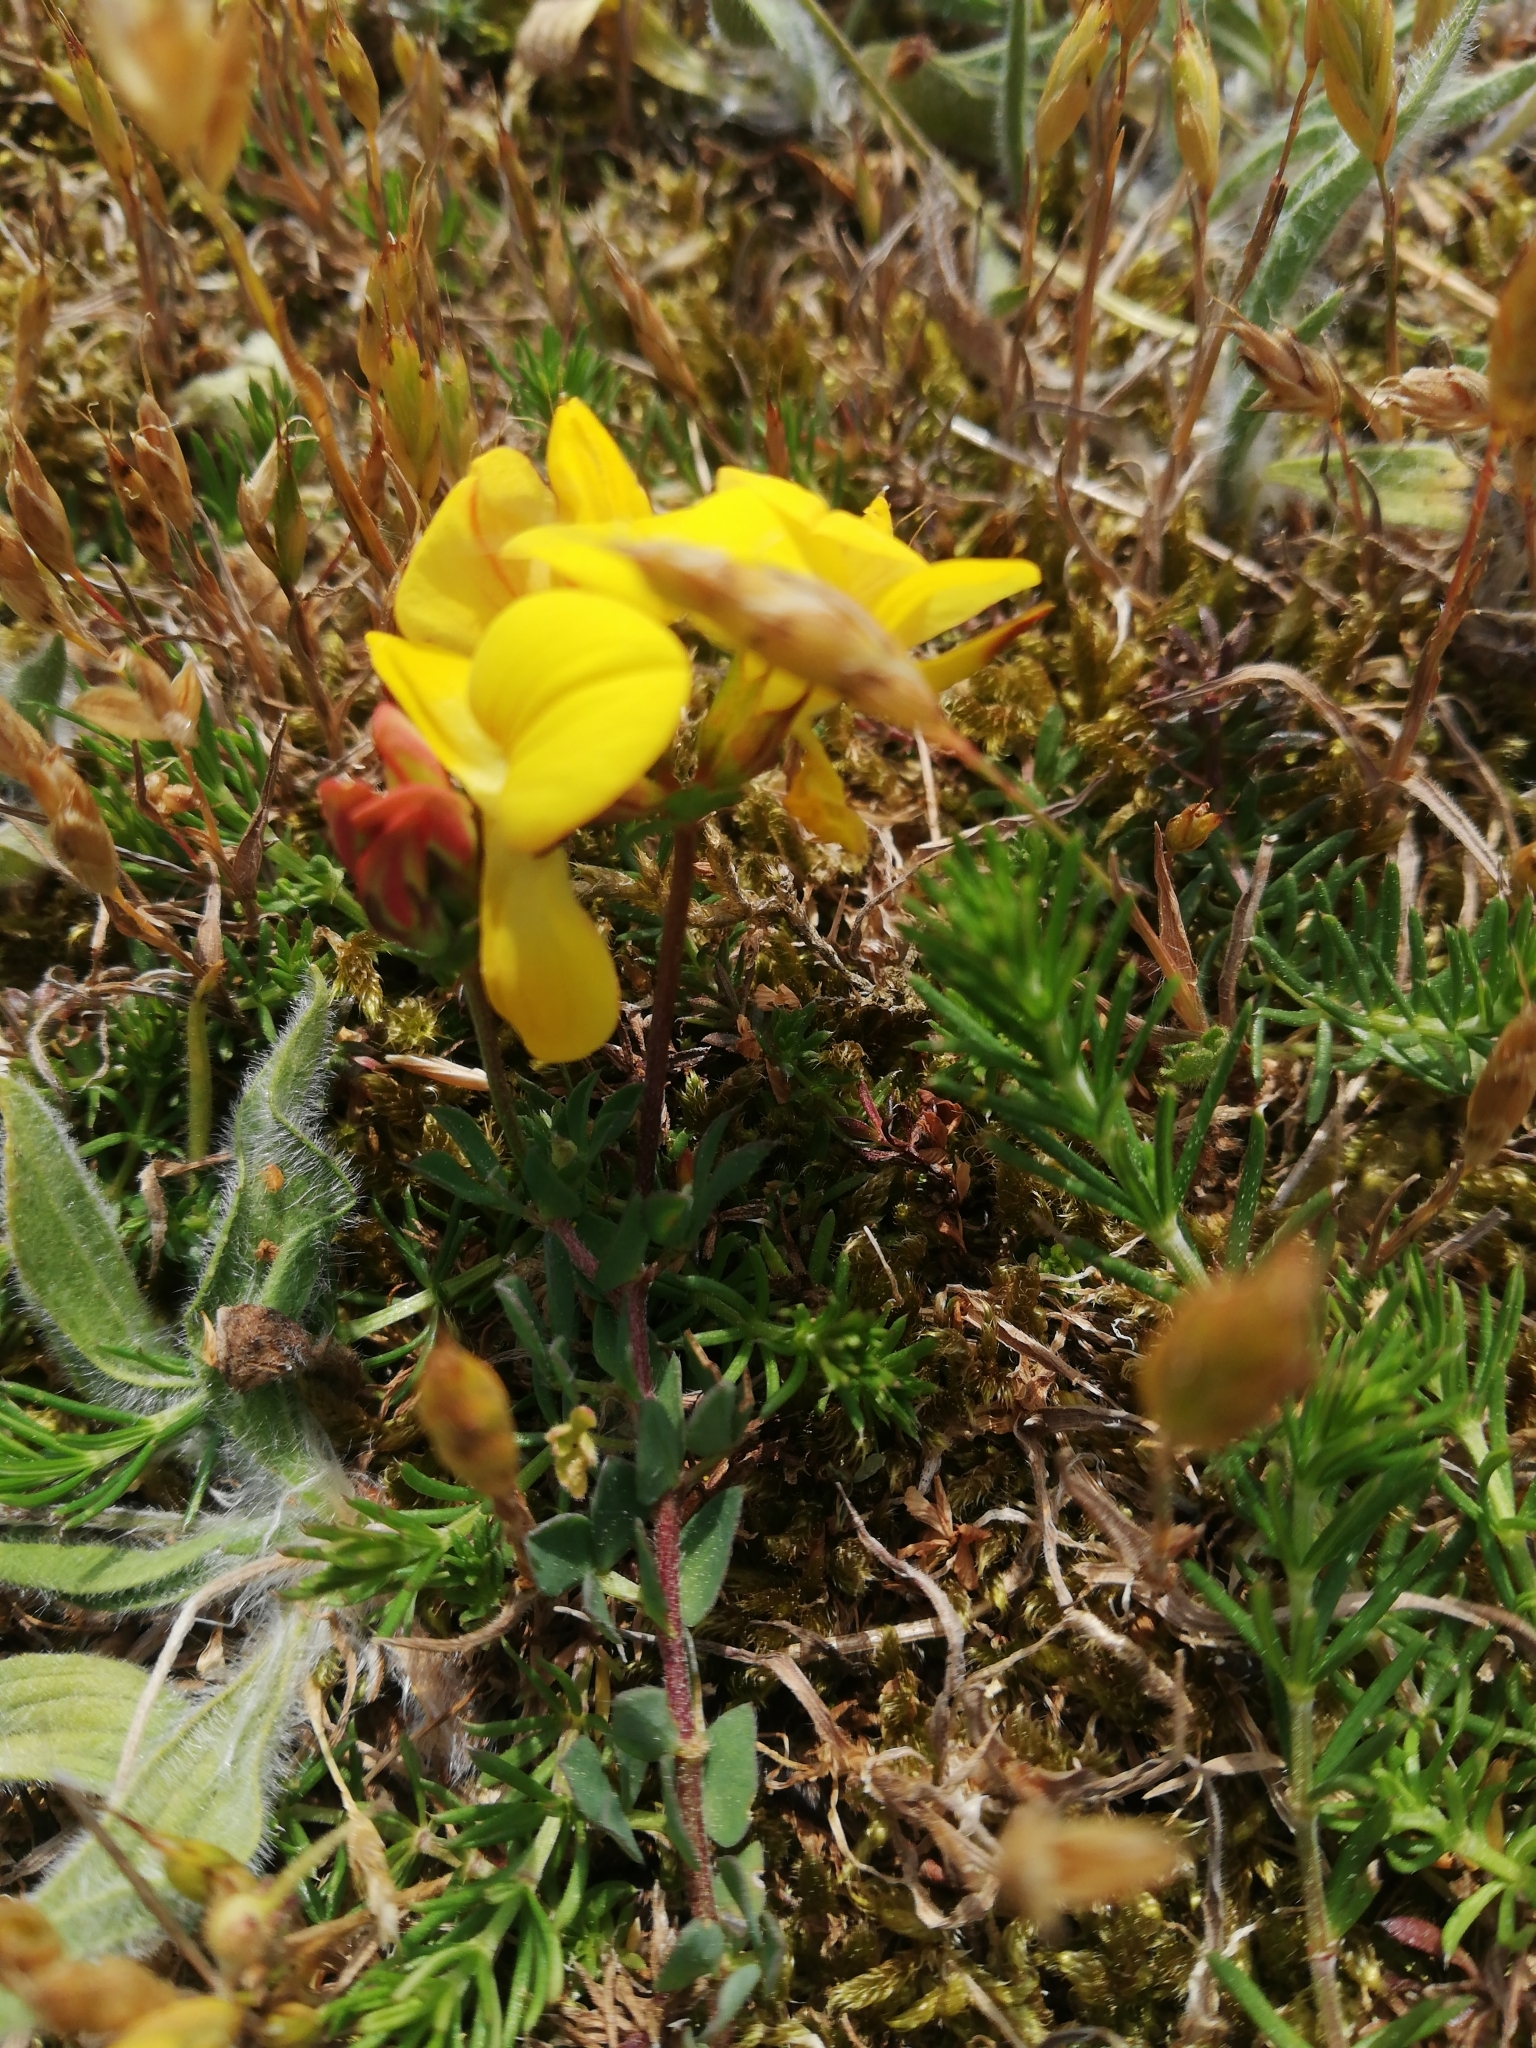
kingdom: Plantae
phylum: Tracheophyta
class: Magnoliopsida
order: Fabales
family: Fabaceae
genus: Lotus
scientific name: Lotus corniculatus
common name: Common bird's-foot-trefoil
